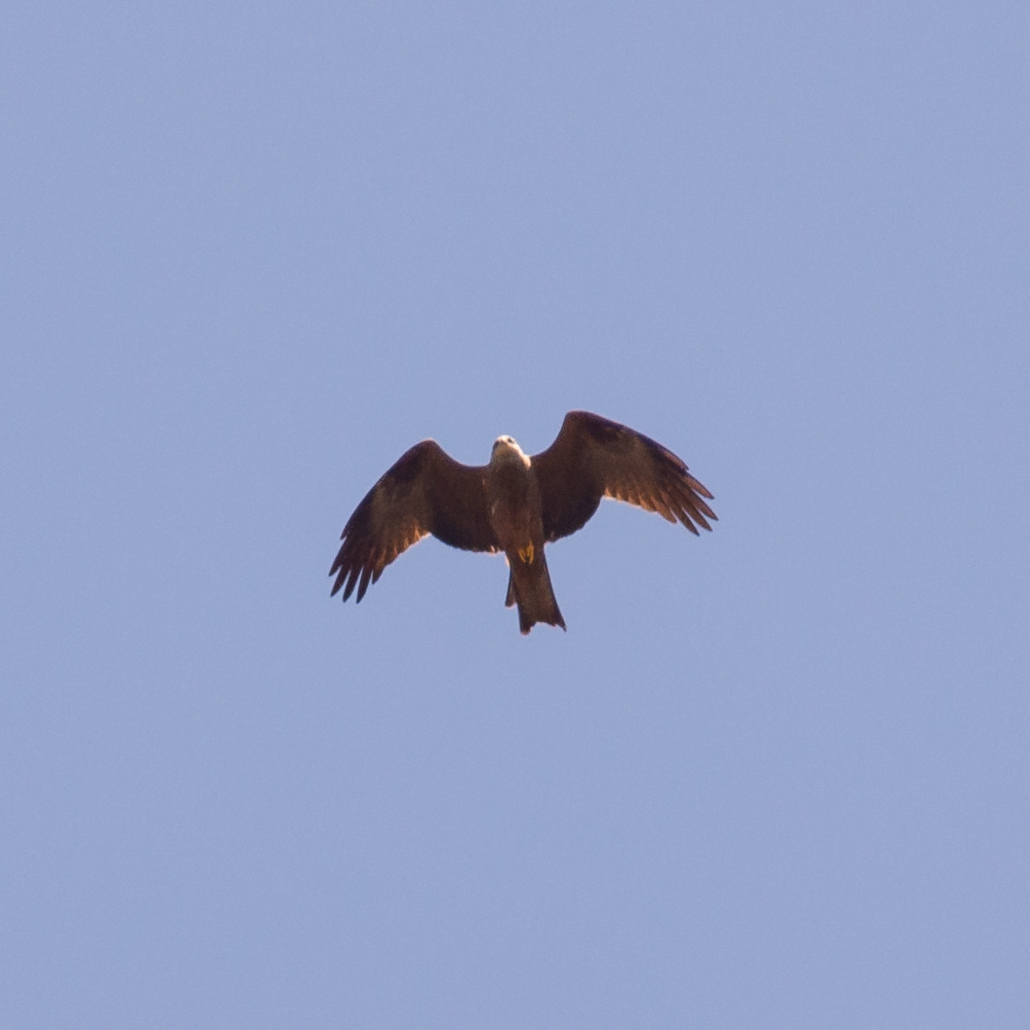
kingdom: Animalia
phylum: Chordata
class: Aves
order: Accipitriformes
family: Accipitridae
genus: Milvus
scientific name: Milvus migrans
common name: Black kite
